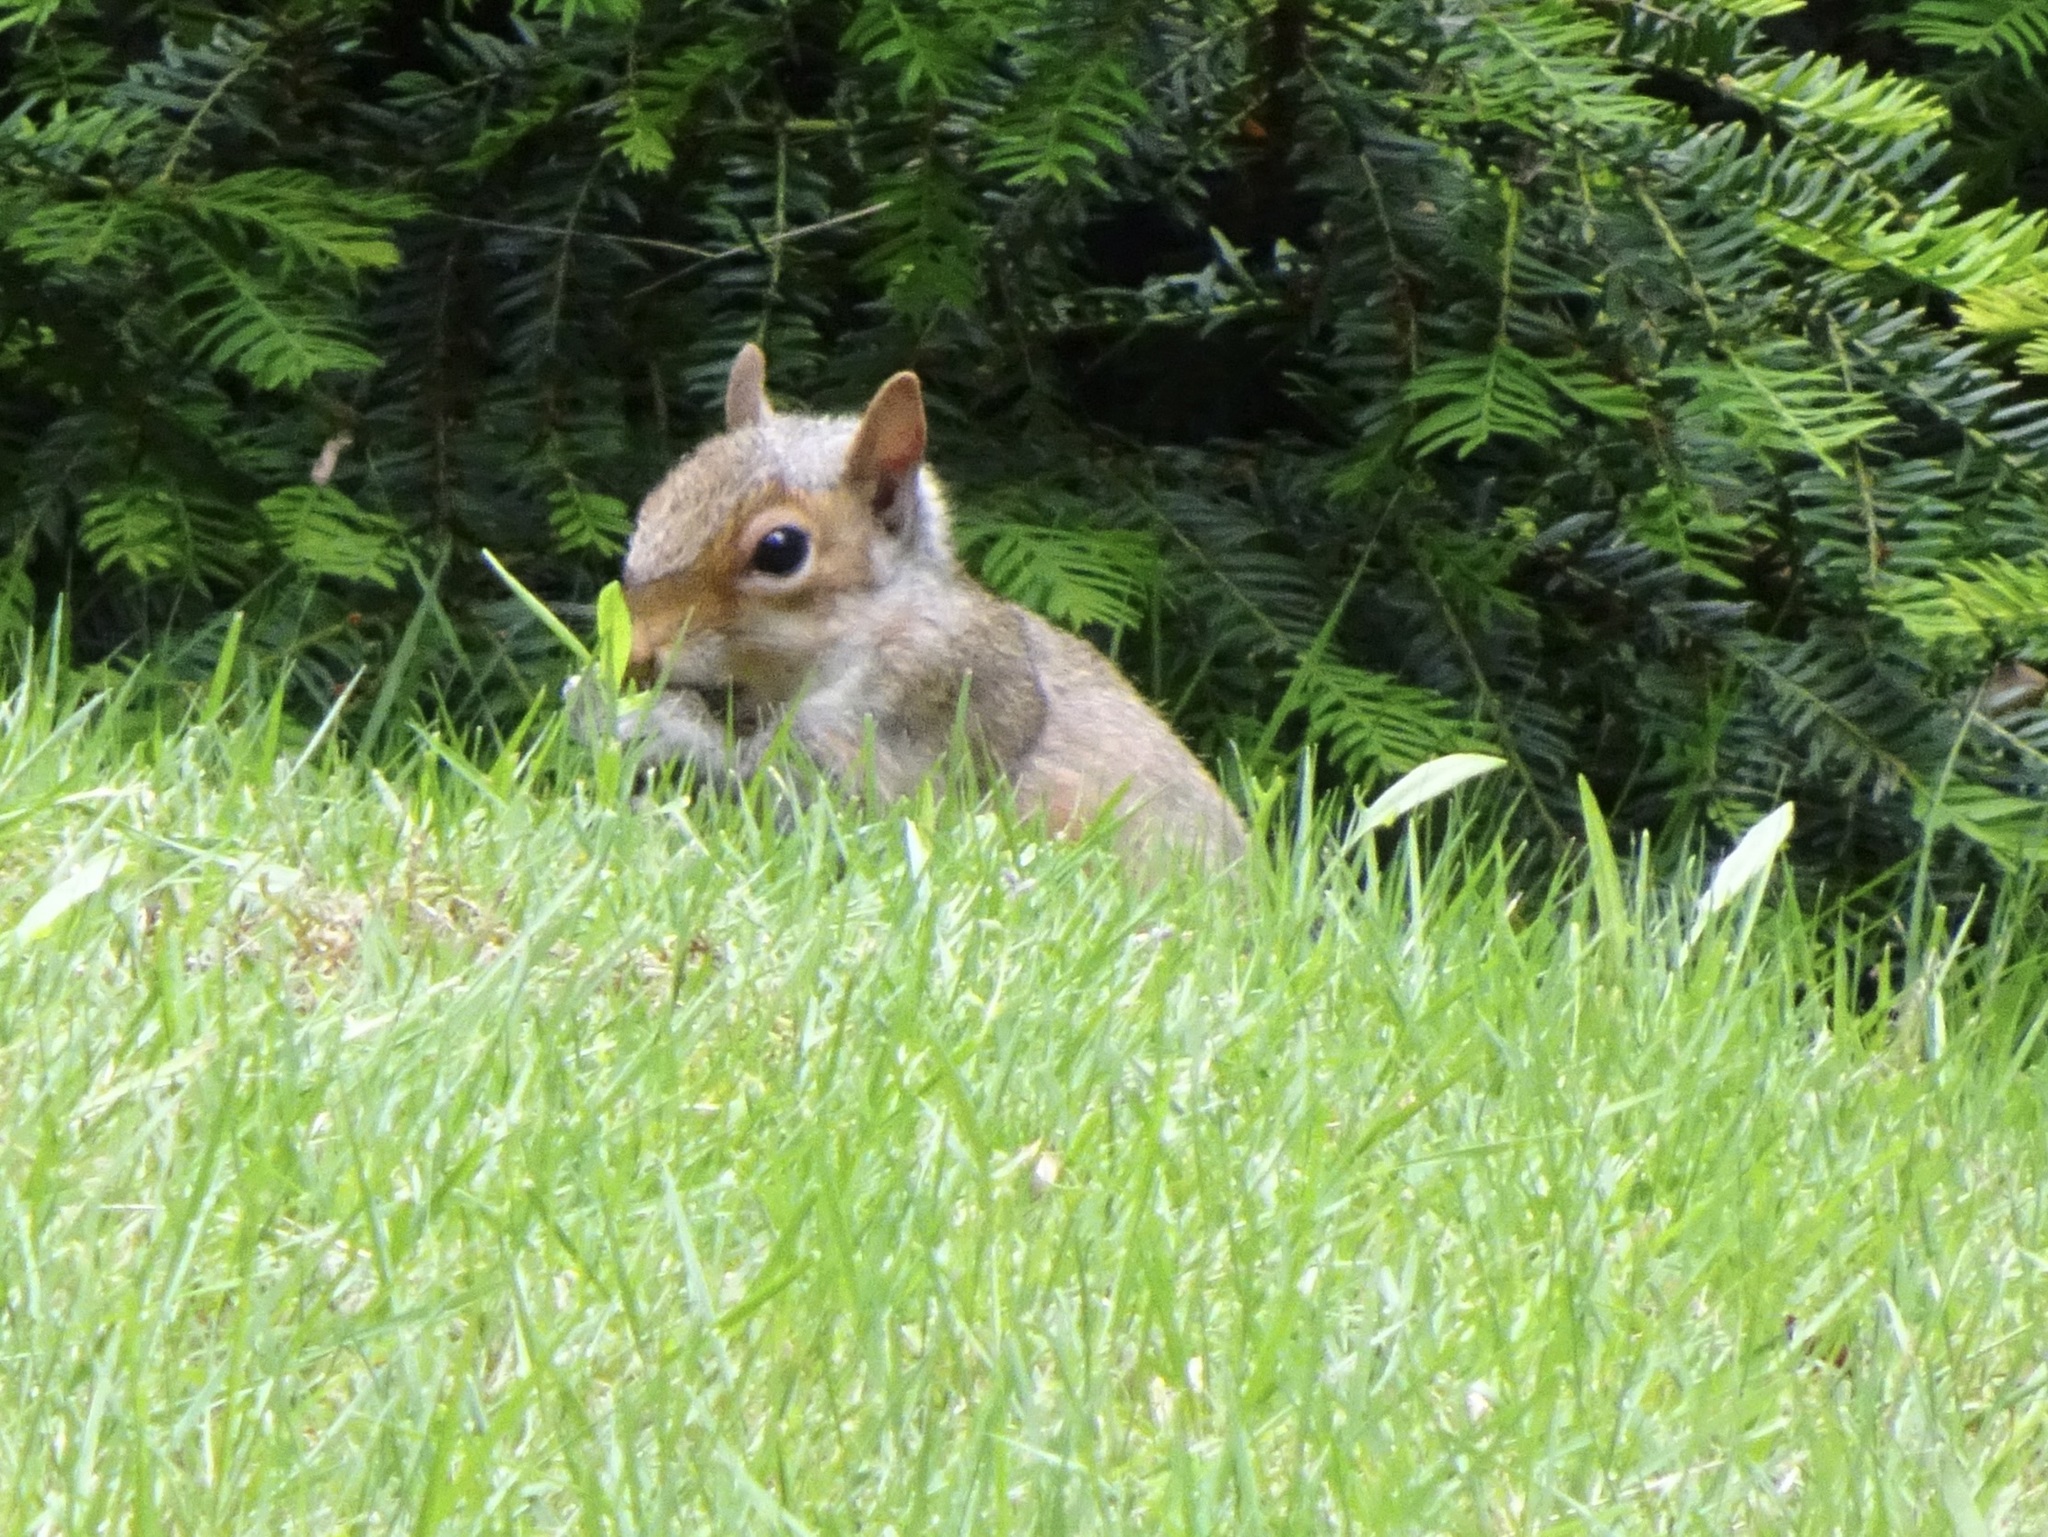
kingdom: Animalia
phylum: Chordata
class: Mammalia
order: Rodentia
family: Sciuridae
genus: Sciurus
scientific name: Sciurus carolinensis
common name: Eastern gray squirrel
